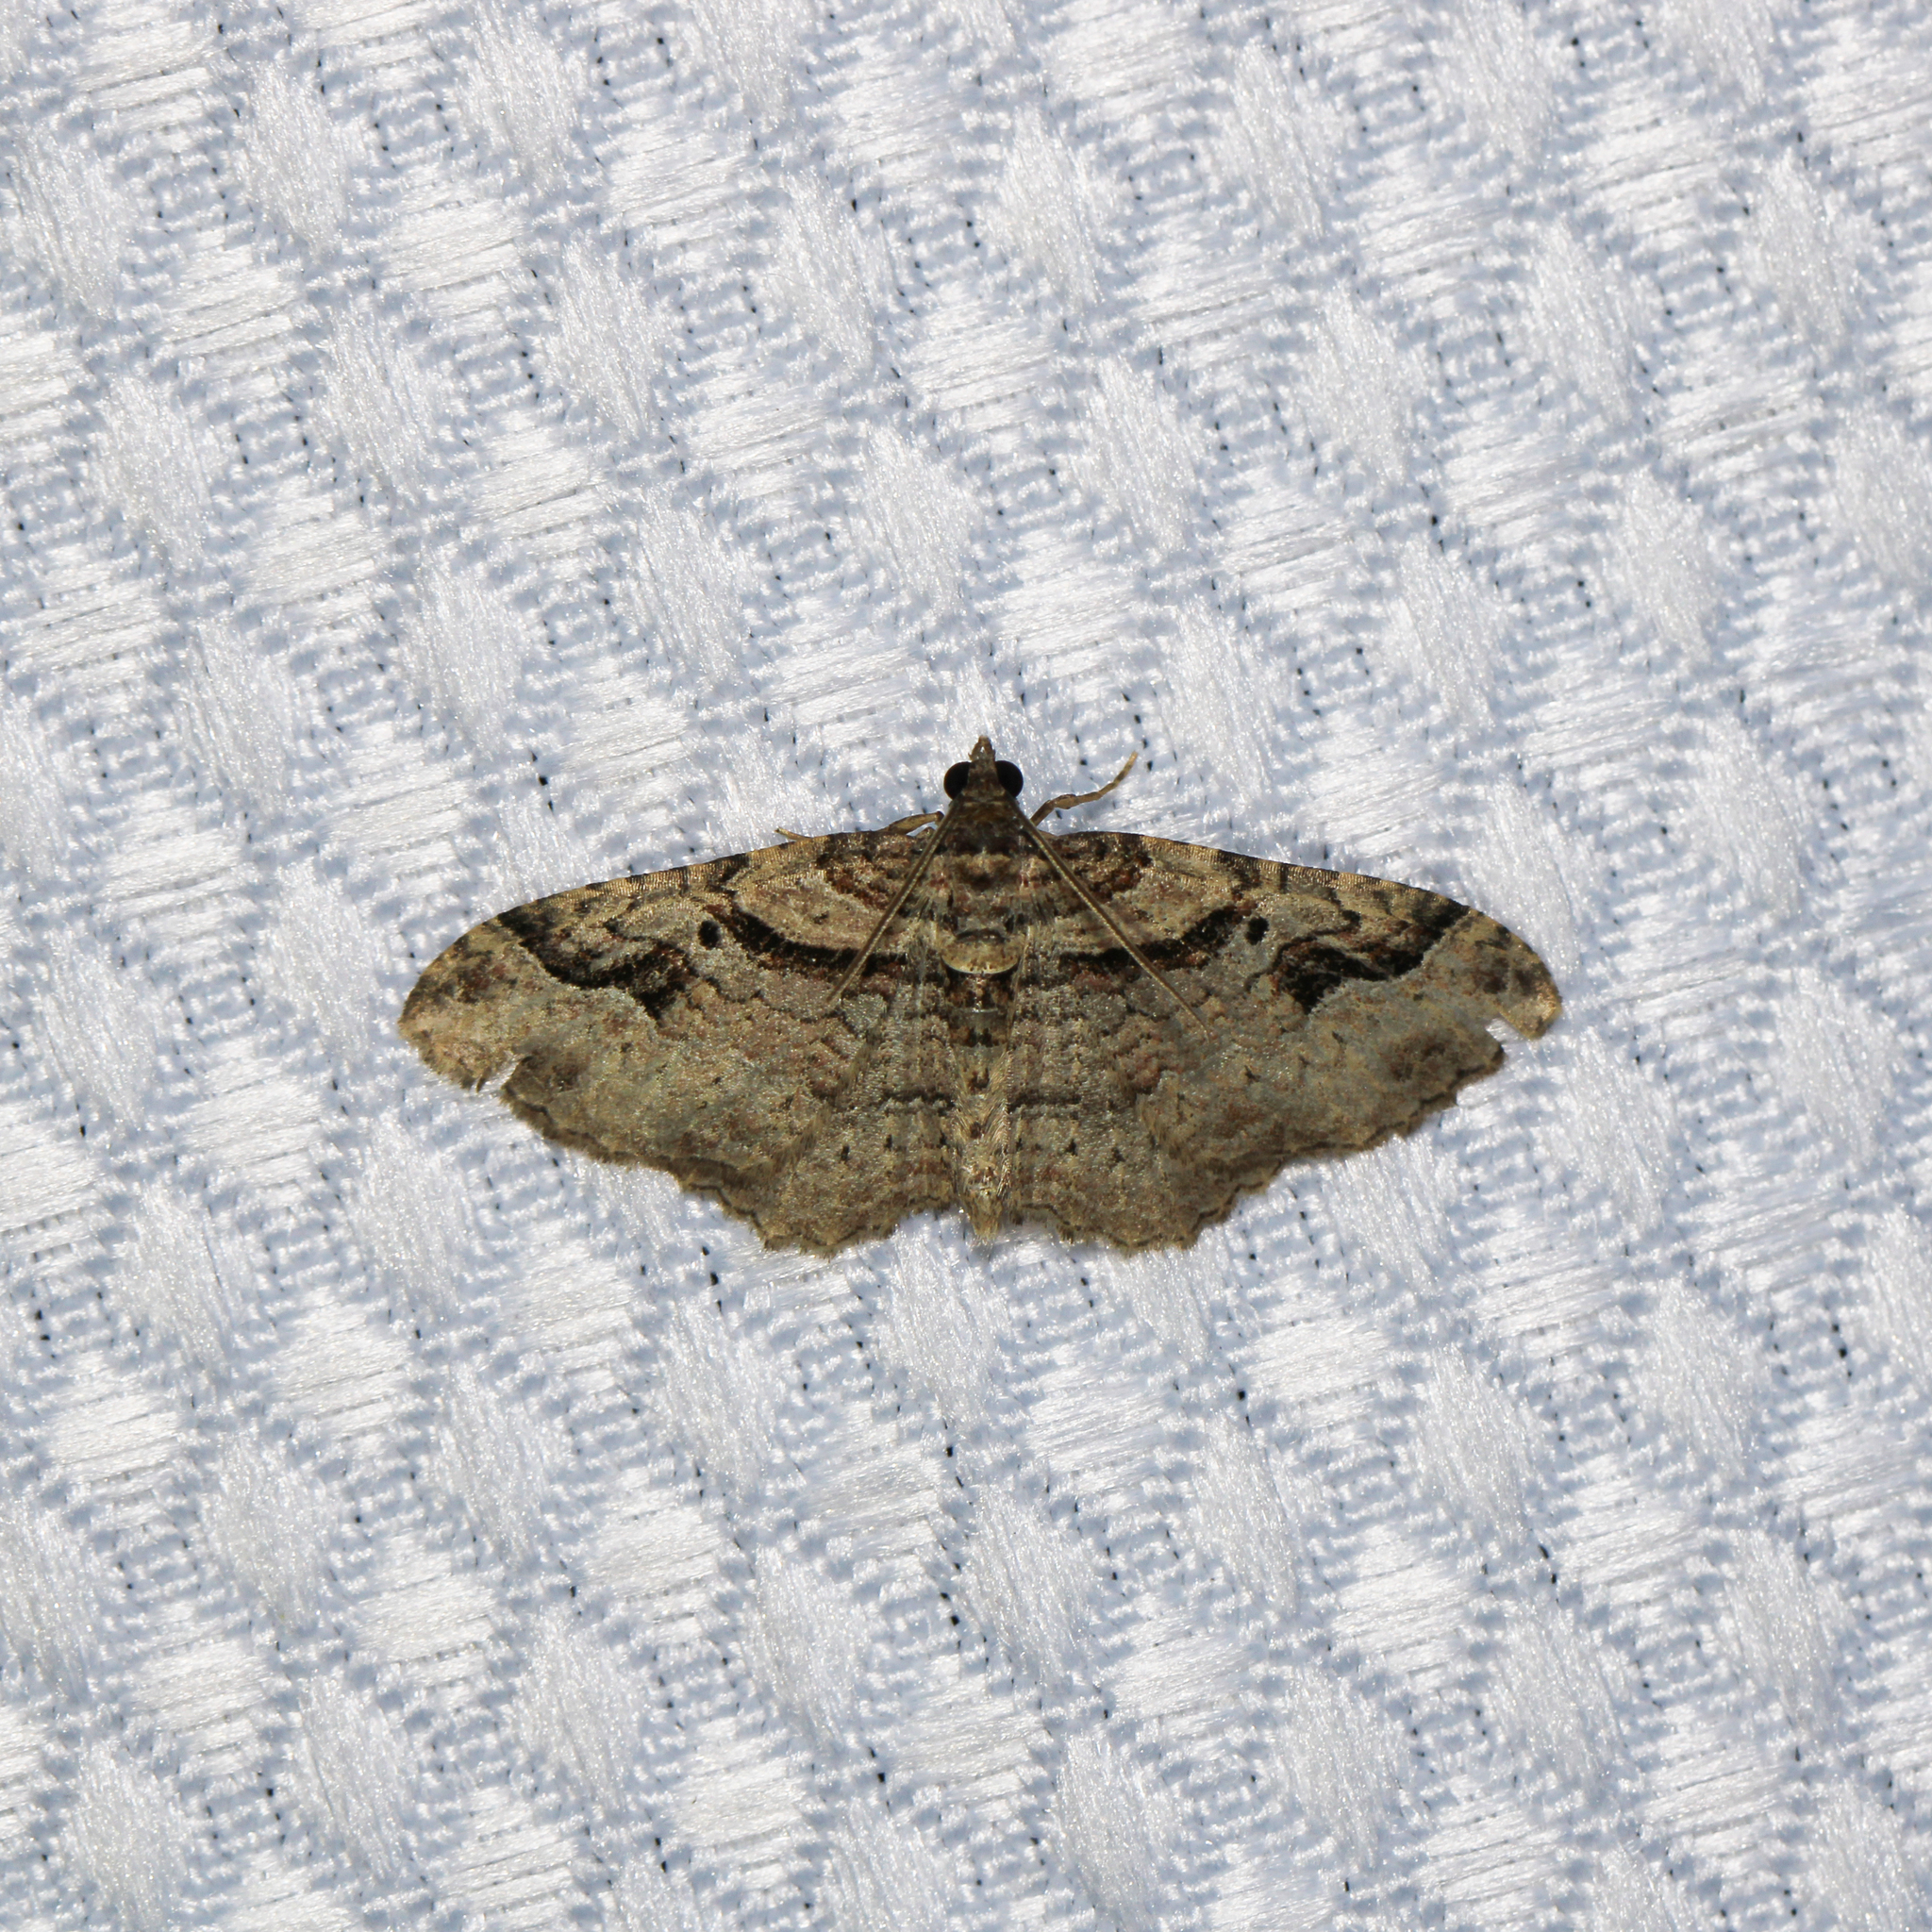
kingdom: Animalia
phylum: Arthropoda
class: Insecta
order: Lepidoptera
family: Geometridae
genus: Costaconvexa
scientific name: Costaconvexa centrostrigaria
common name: Bent-line carpet
